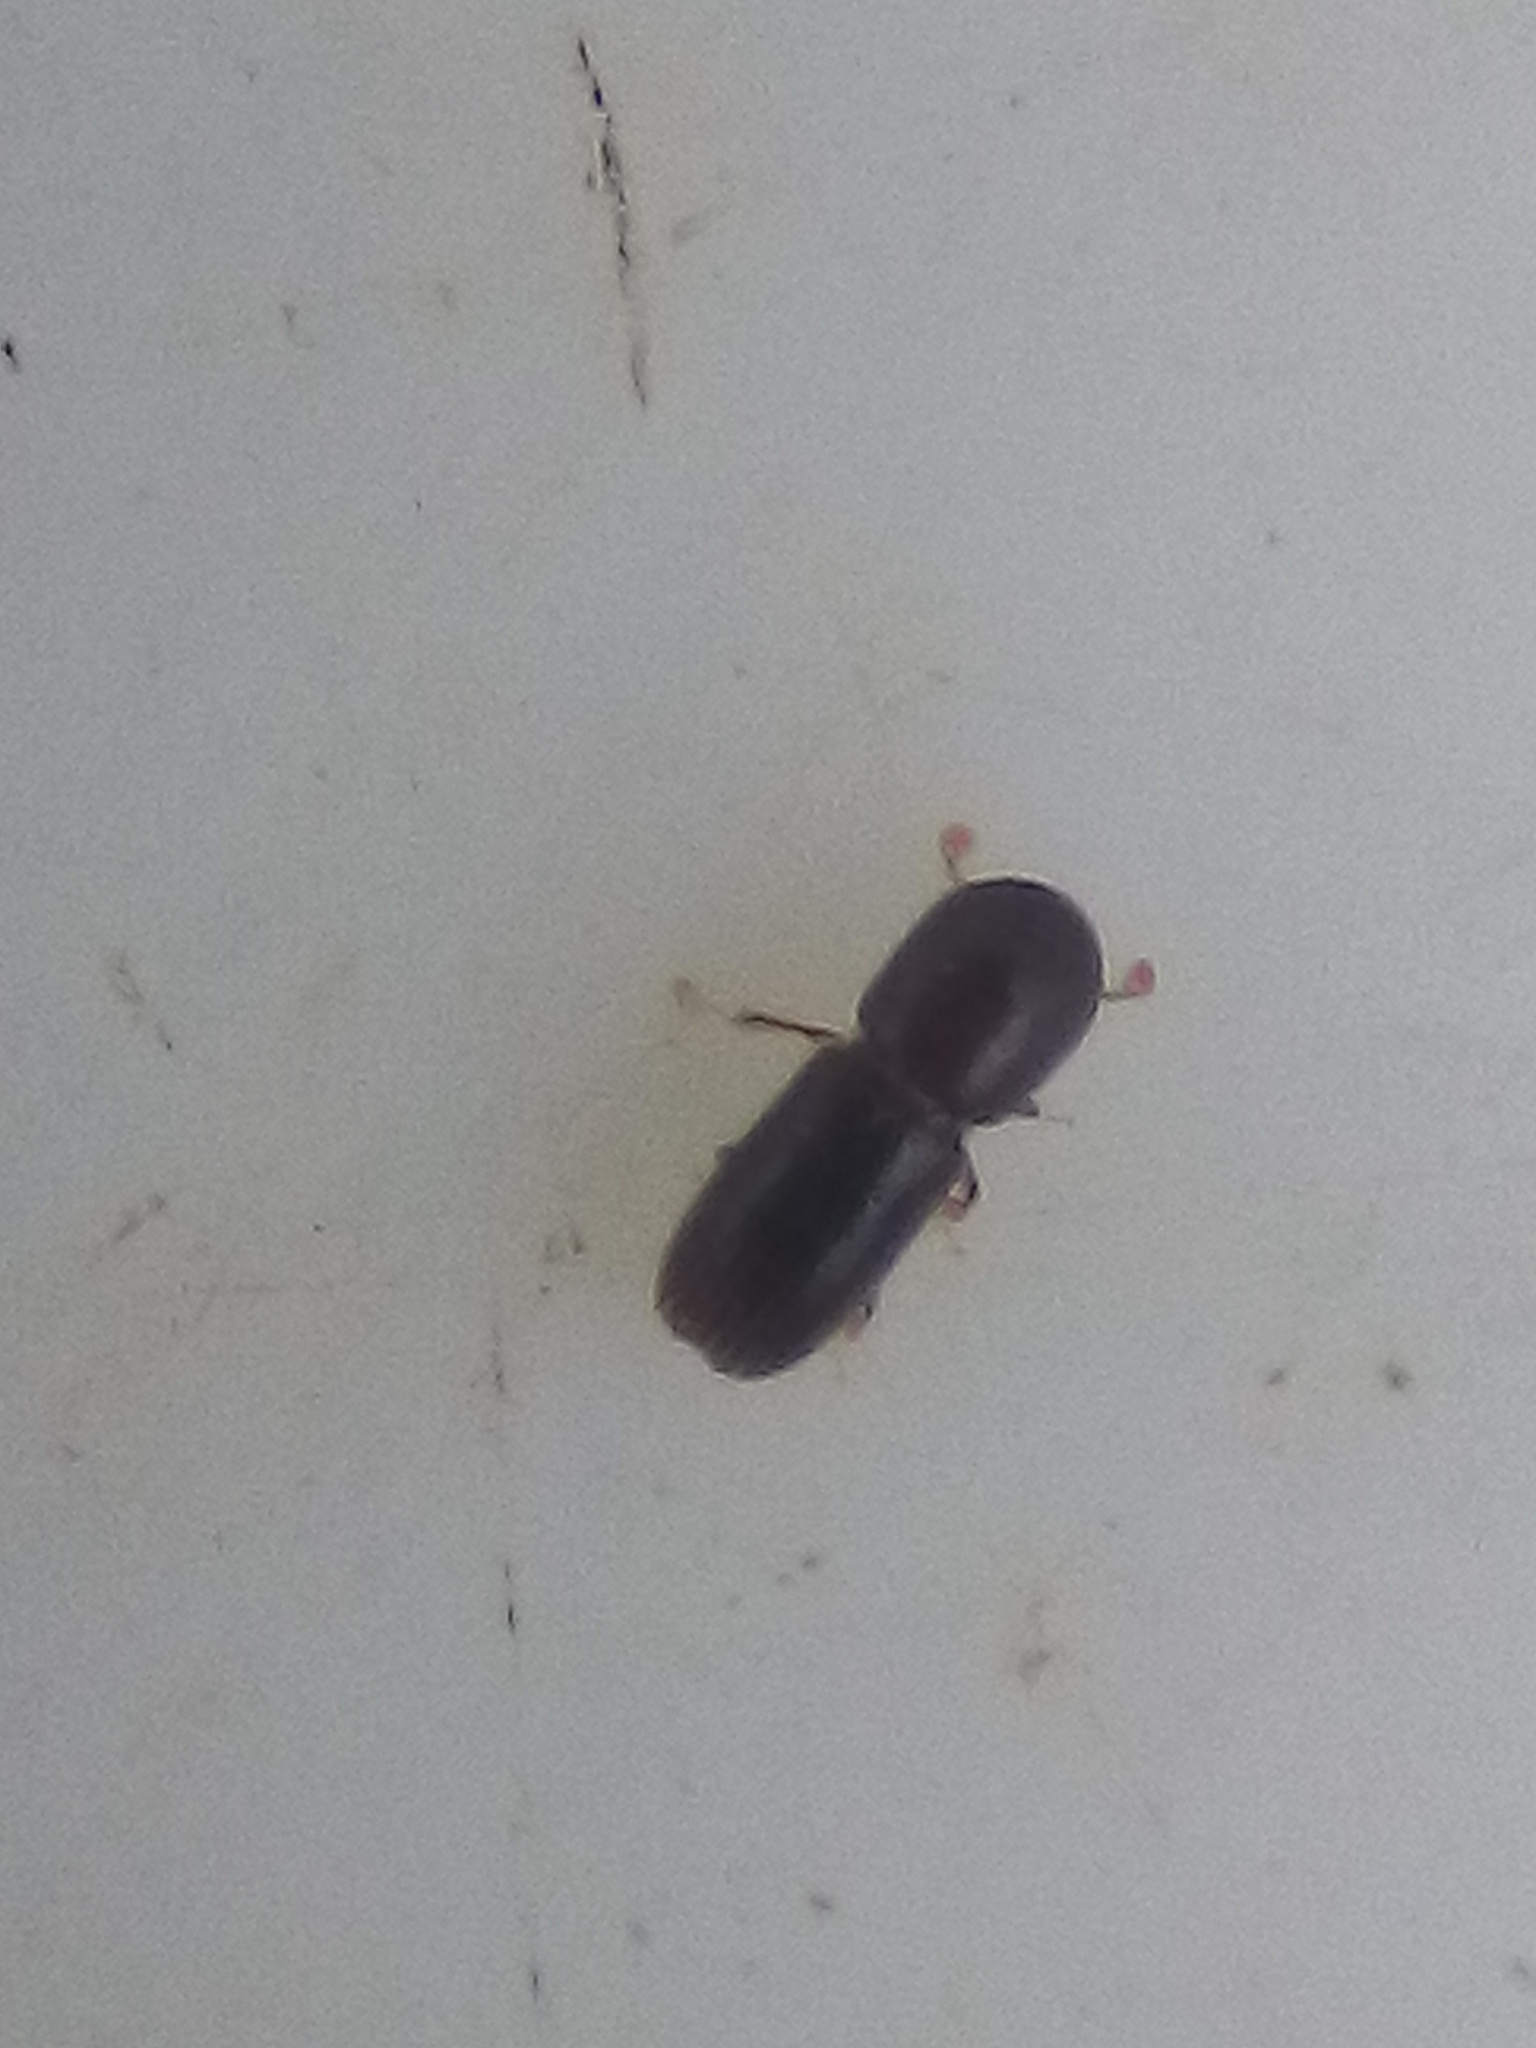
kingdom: Animalia
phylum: Arthropoda
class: Insecta
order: Coleoptera
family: Curculionidae
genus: Xyleborinus
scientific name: Xyleborinus saxesenii
